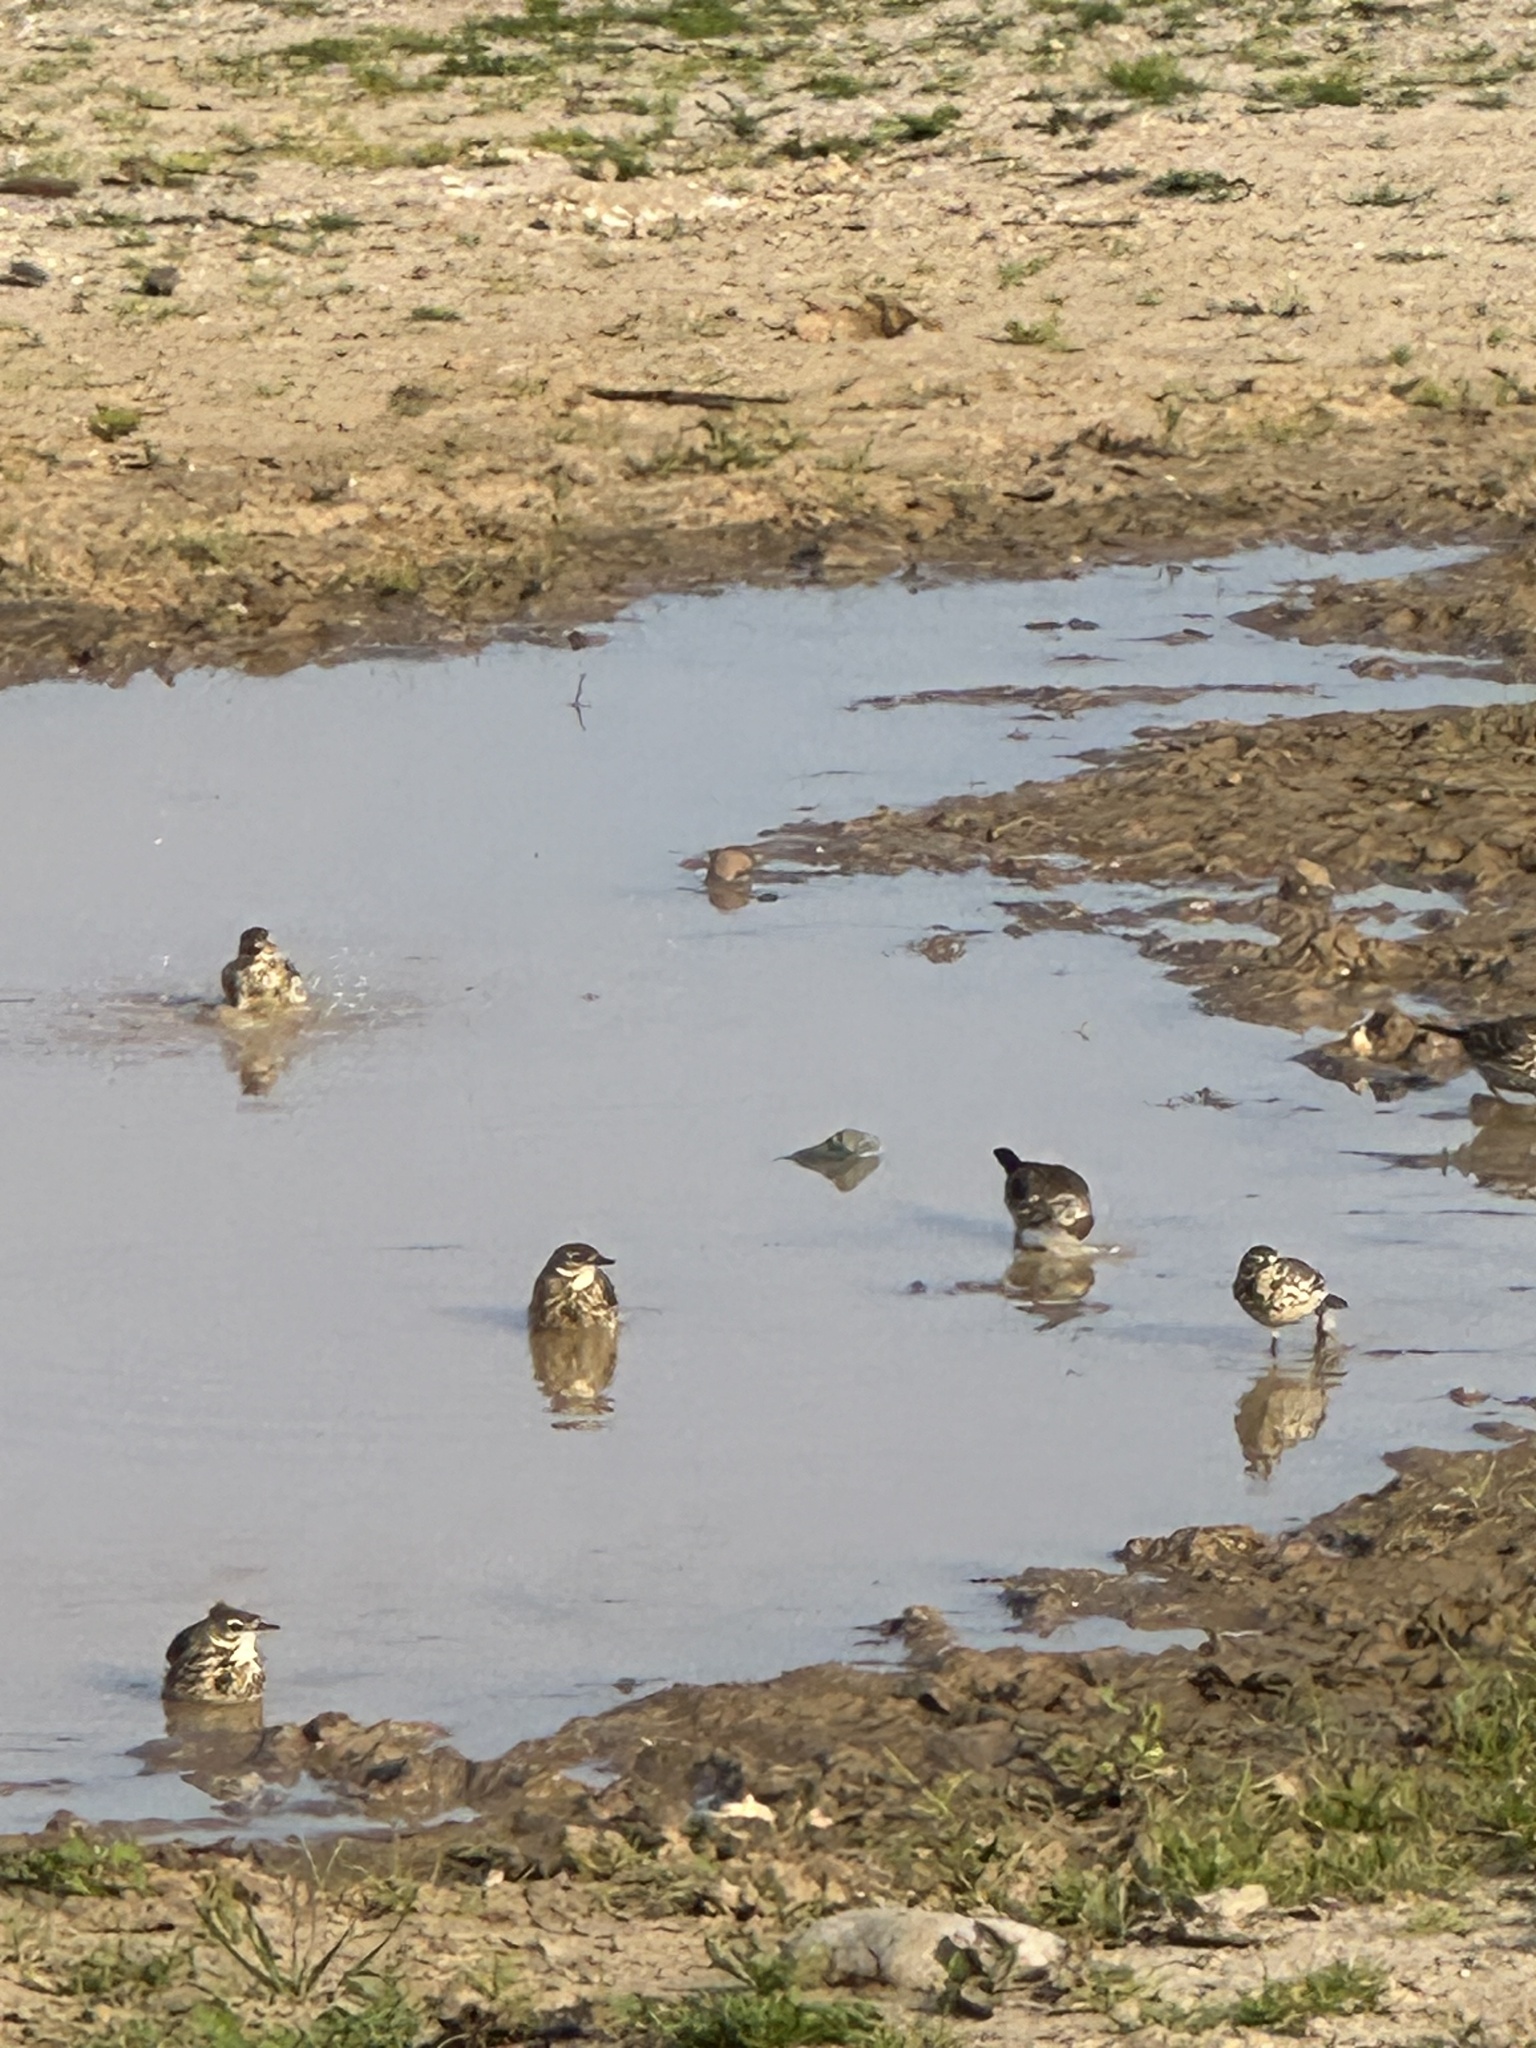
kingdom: Animalia
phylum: Chordata
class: Aves
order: Passeriformes
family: Motacillidae
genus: Anthus
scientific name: Anthus rubescens
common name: Buff-bellied pipit
